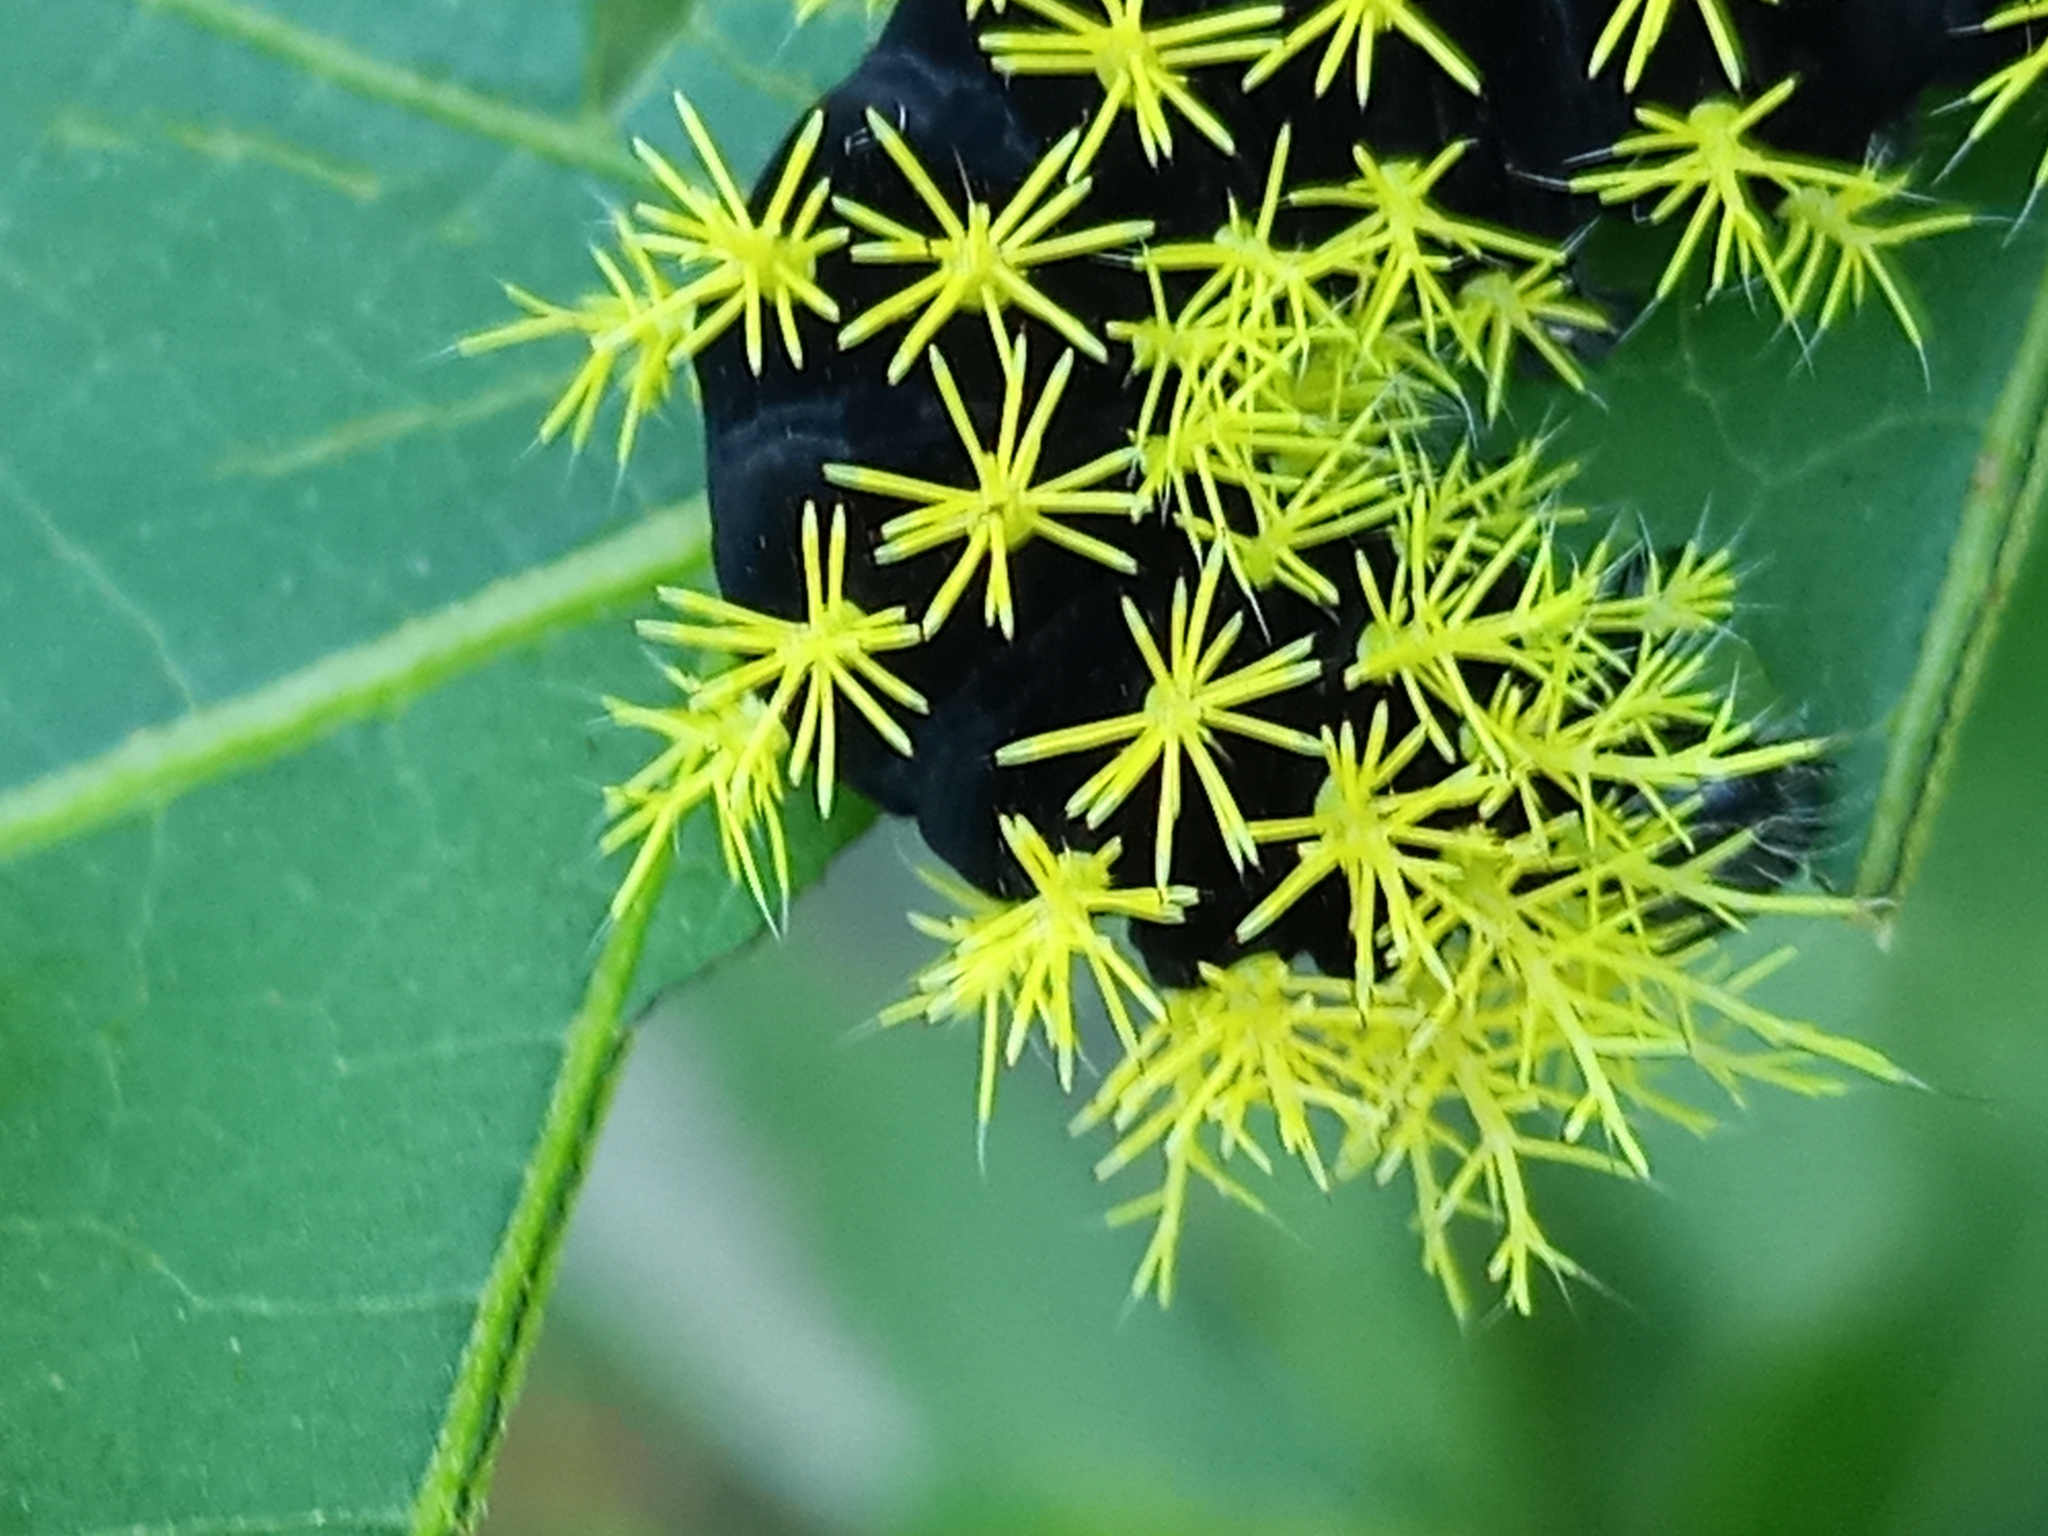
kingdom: Animalia
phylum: Arthropoda
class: Insecta
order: Lepidoptera
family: Saturniidae
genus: Leucanella
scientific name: Leucanella viridescens
